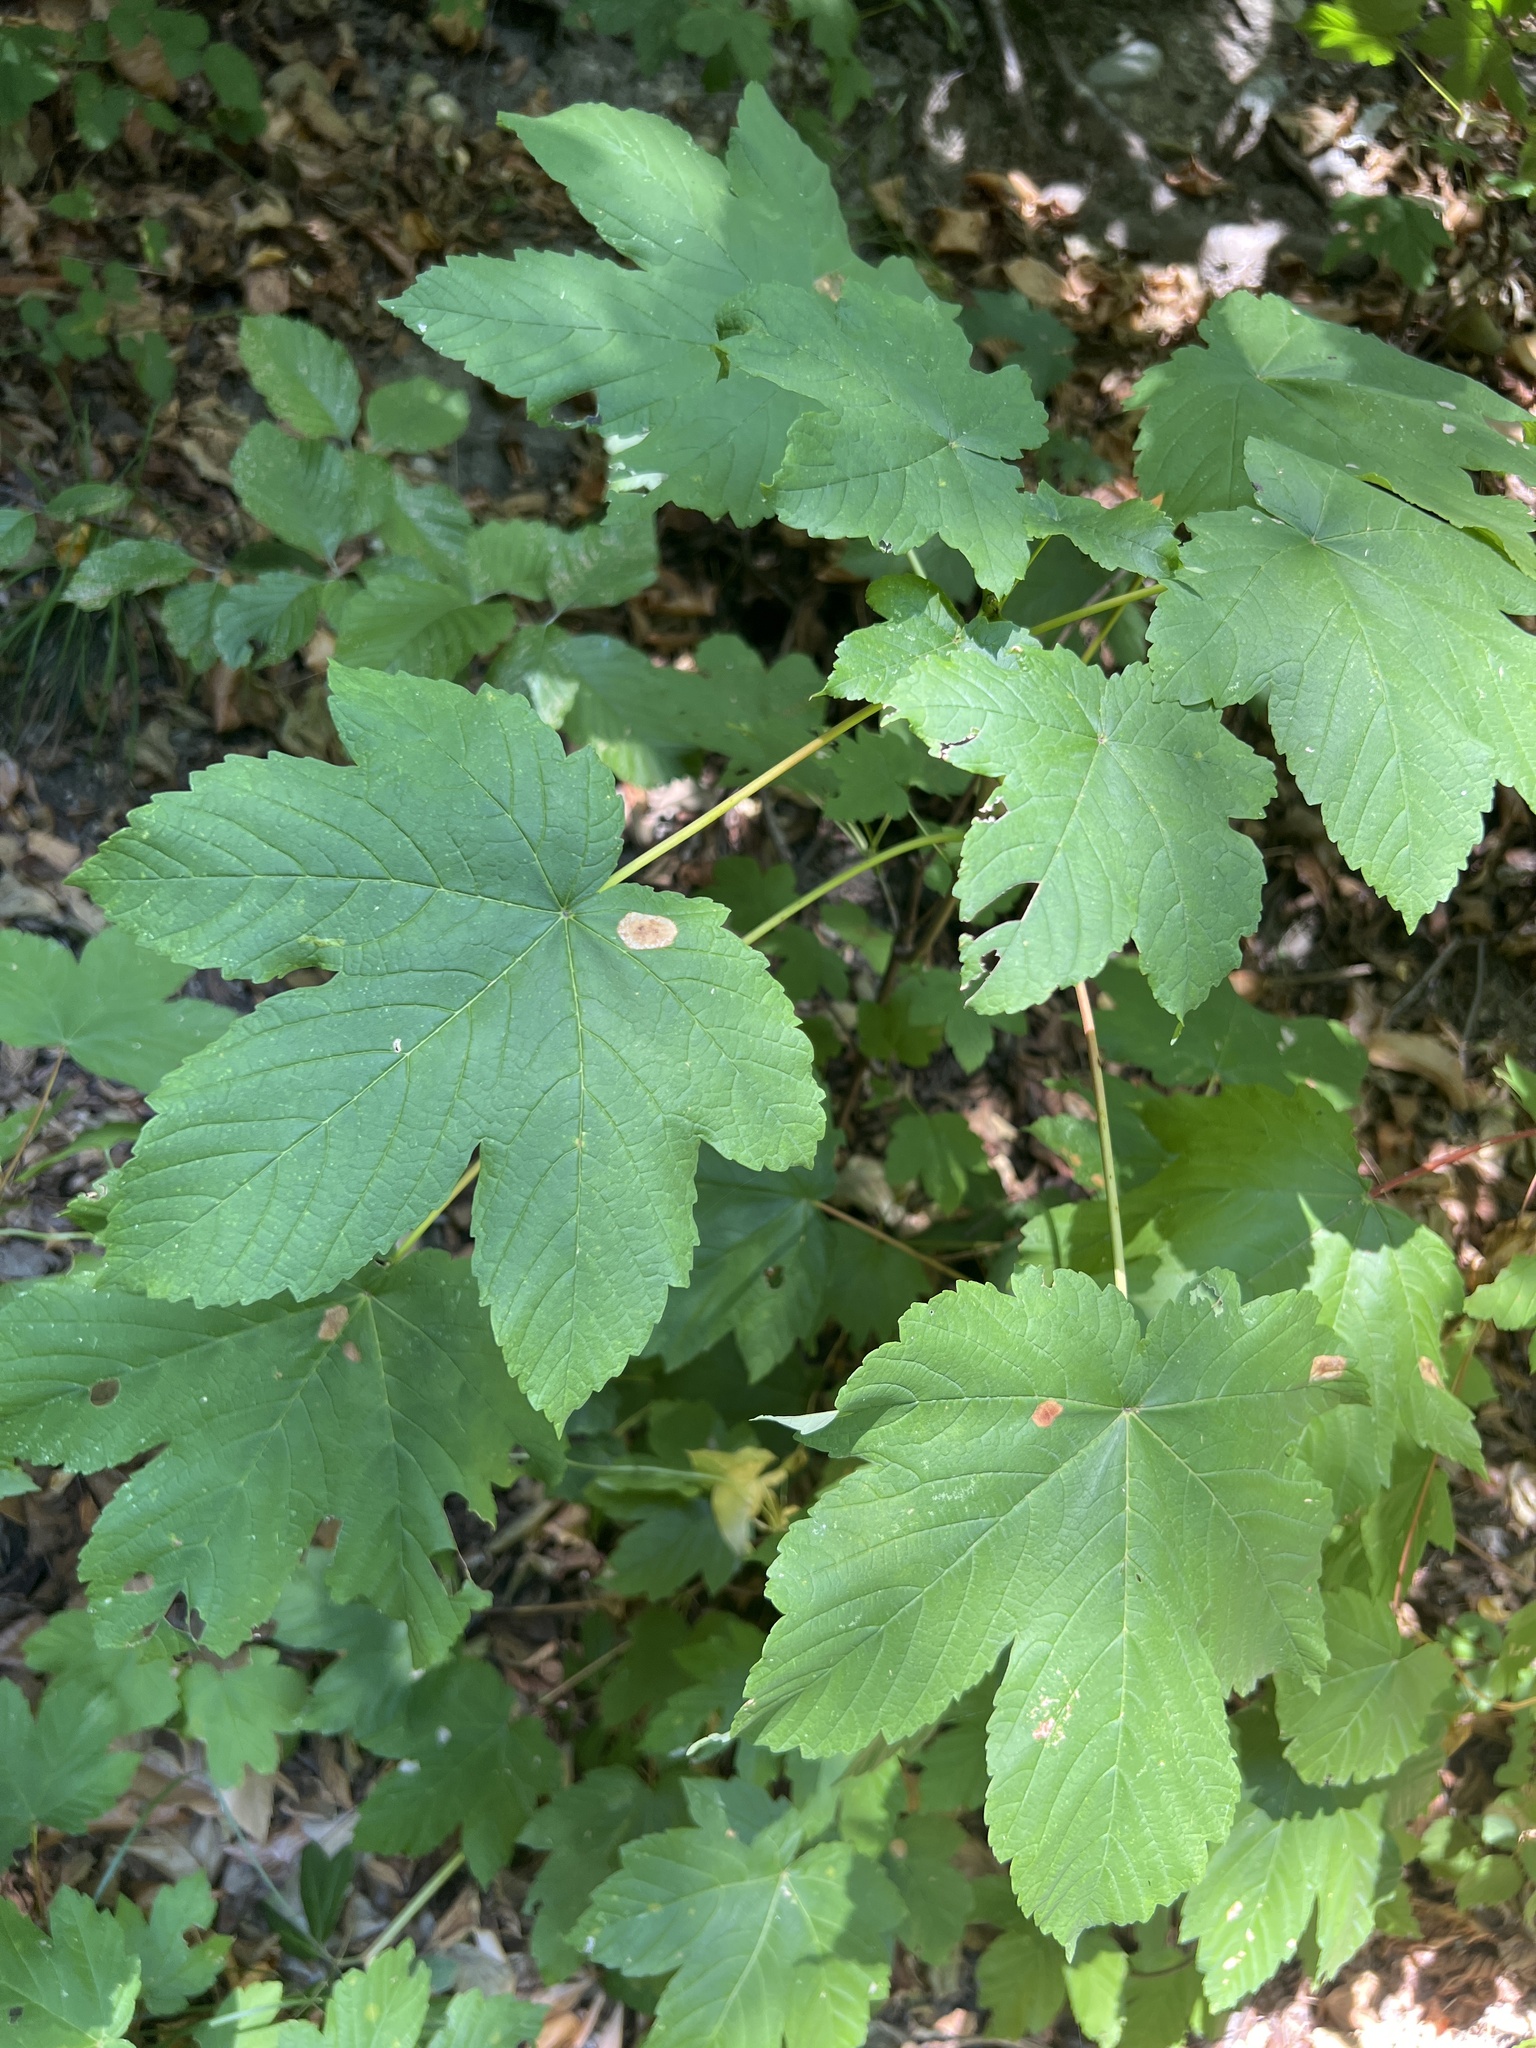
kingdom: Plantae
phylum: Tracheophyta
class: Magnoliopsida
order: Sapindales
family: Sapindaceae
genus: Acer
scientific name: Acer pseudoplatanus
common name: Sycamore
